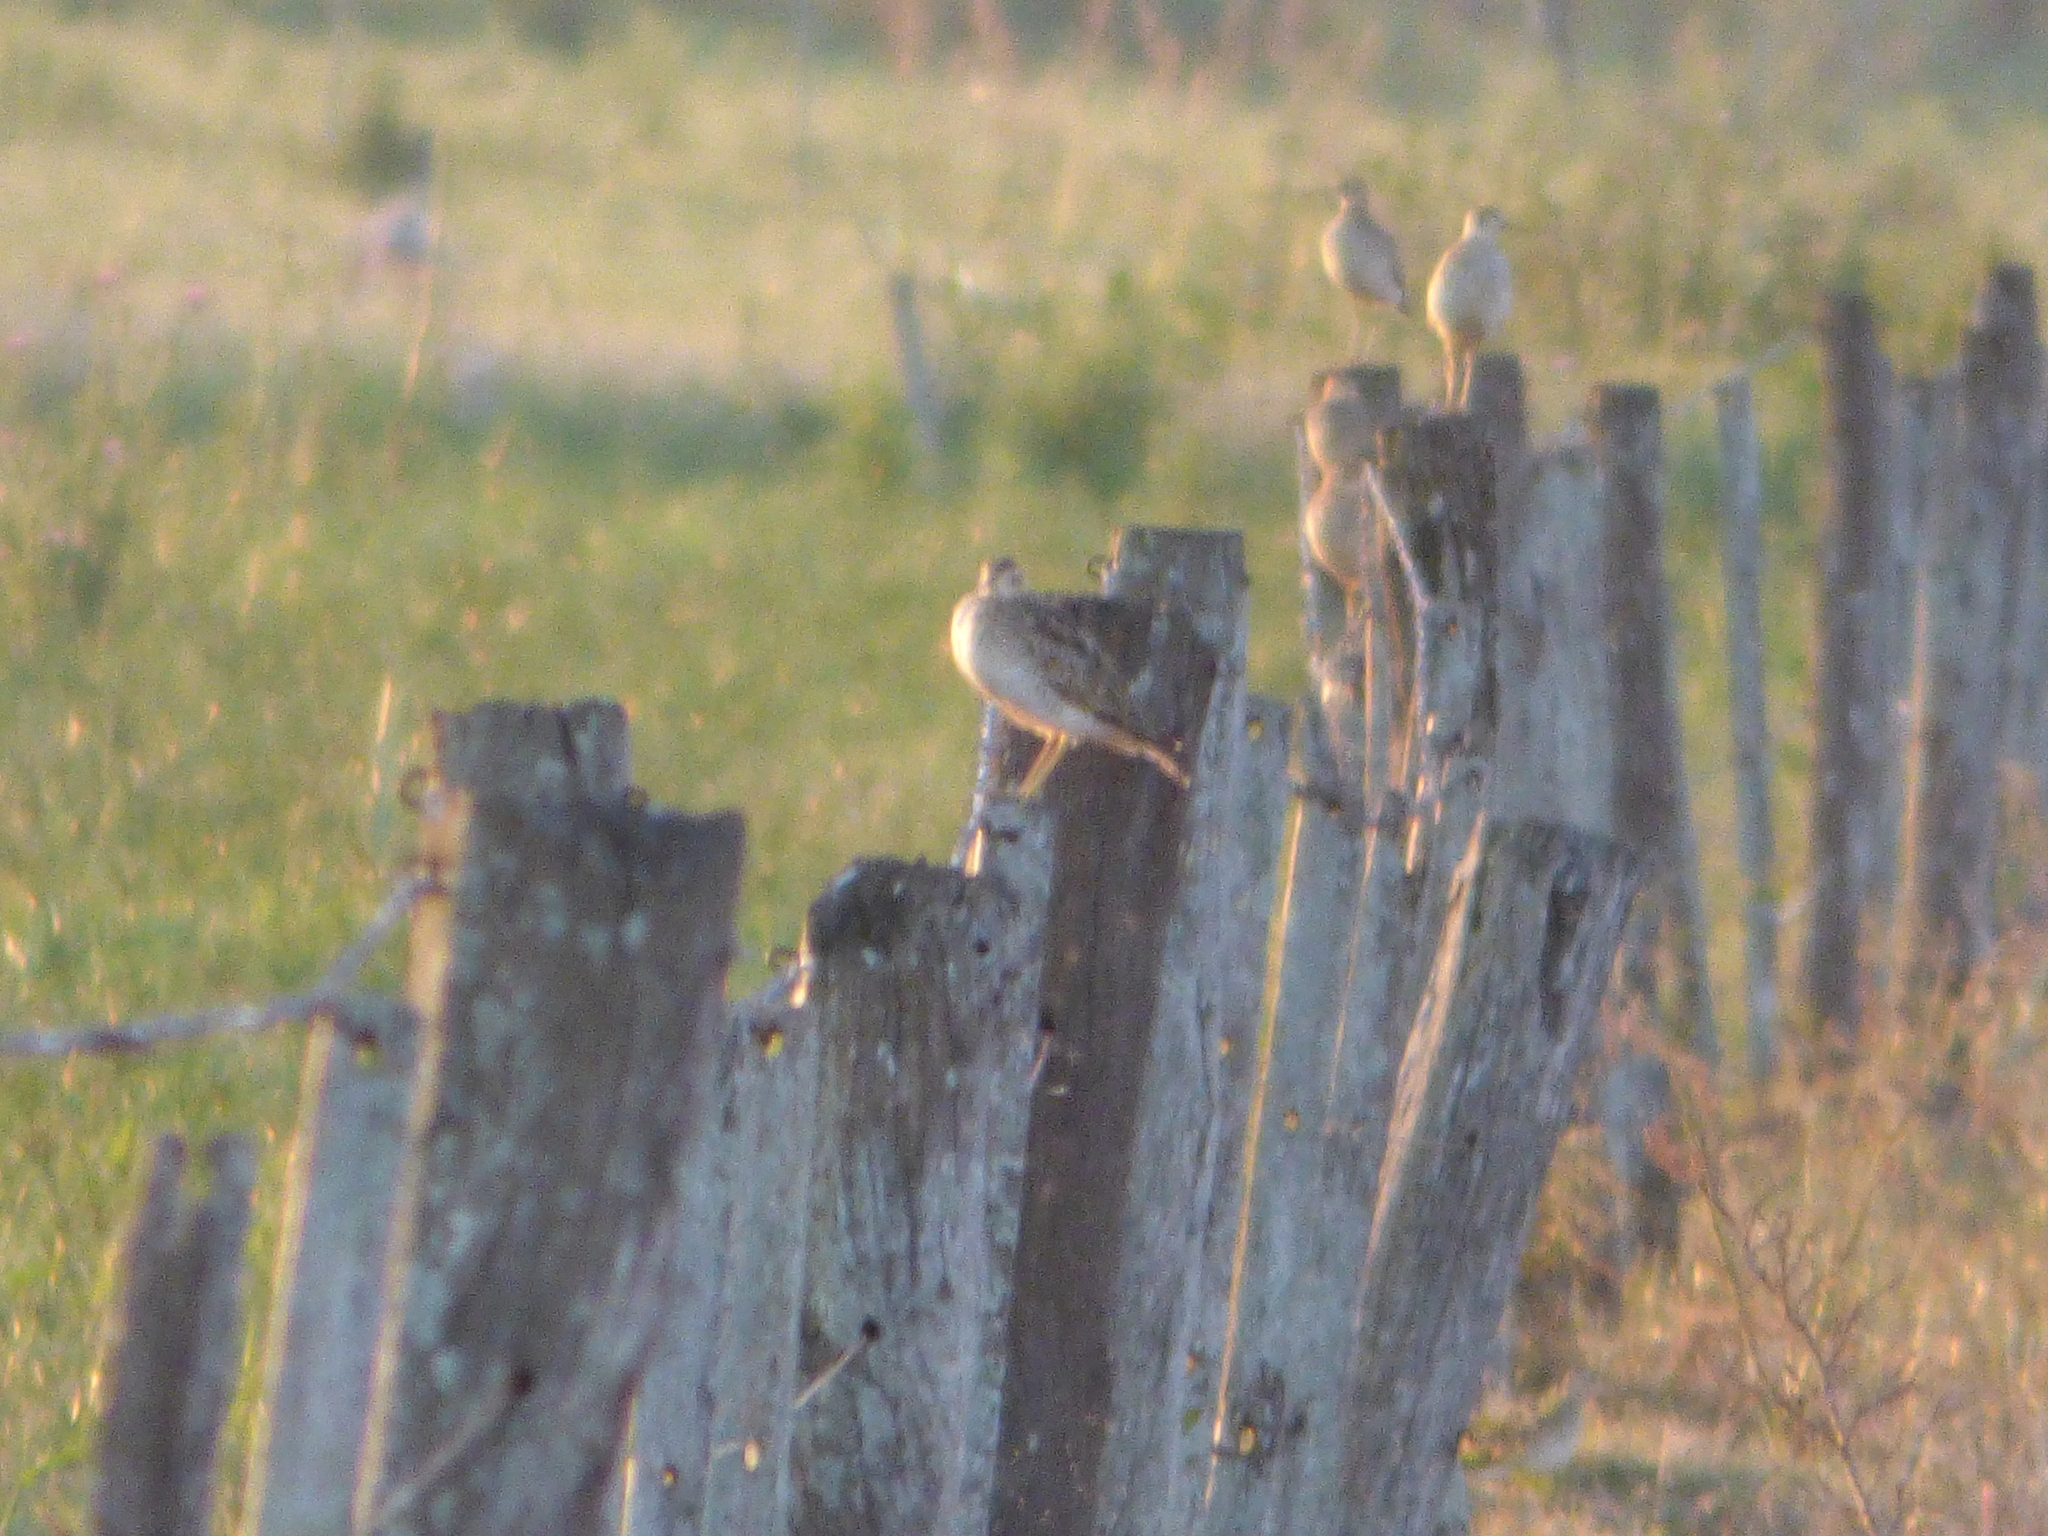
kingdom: Animalia
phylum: Chordata
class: Aves
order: Charadriiformes
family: Scolopacidae
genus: Bartramia
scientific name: Bartramia longicauda
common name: Upland sandpiper
